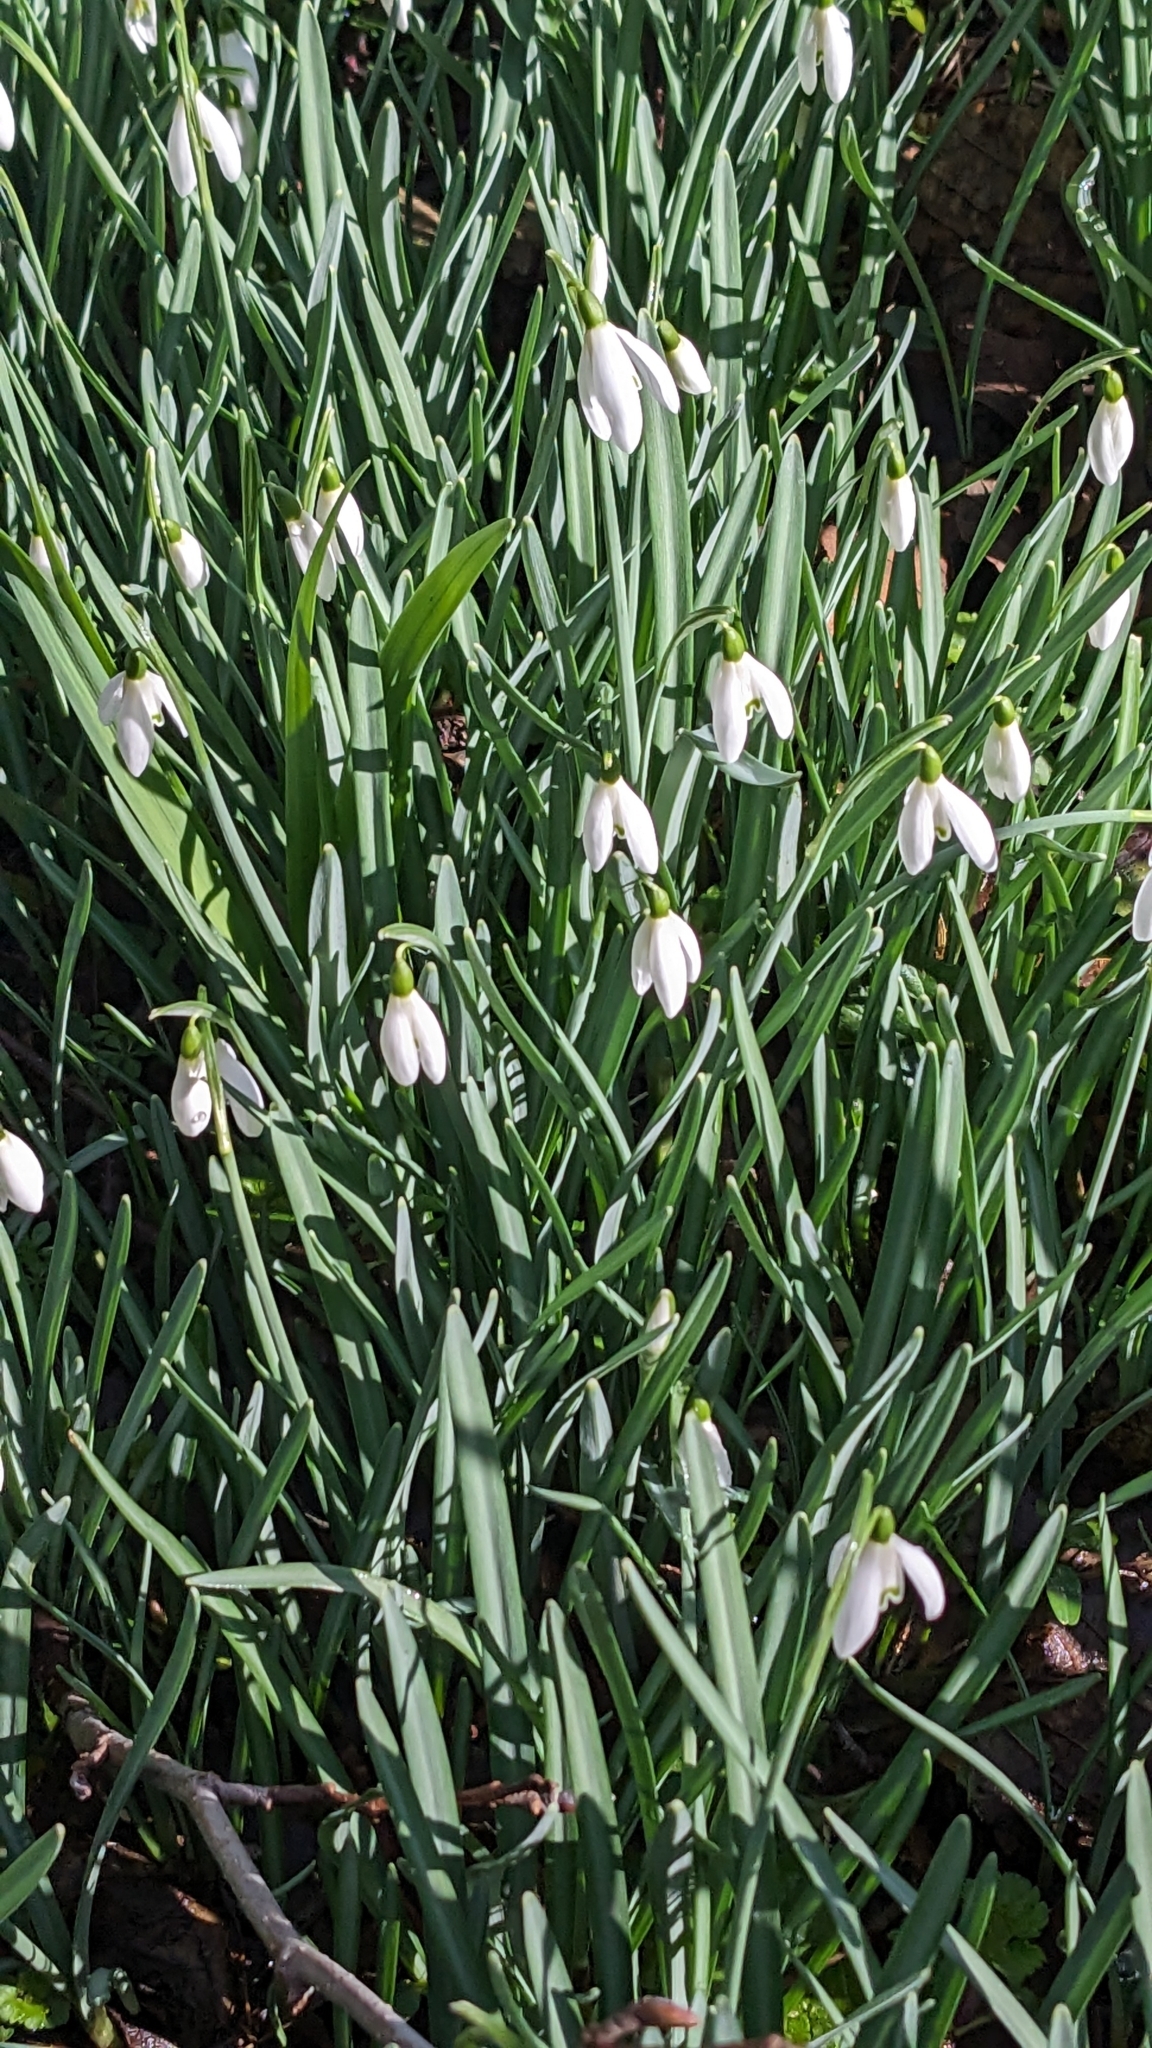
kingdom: Plantae
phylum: Tracheophyta
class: Liliopsida
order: Asparagales
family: Amaryllidaceae
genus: Galanthus
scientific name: Galanthus nivalis
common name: Snowdrop
